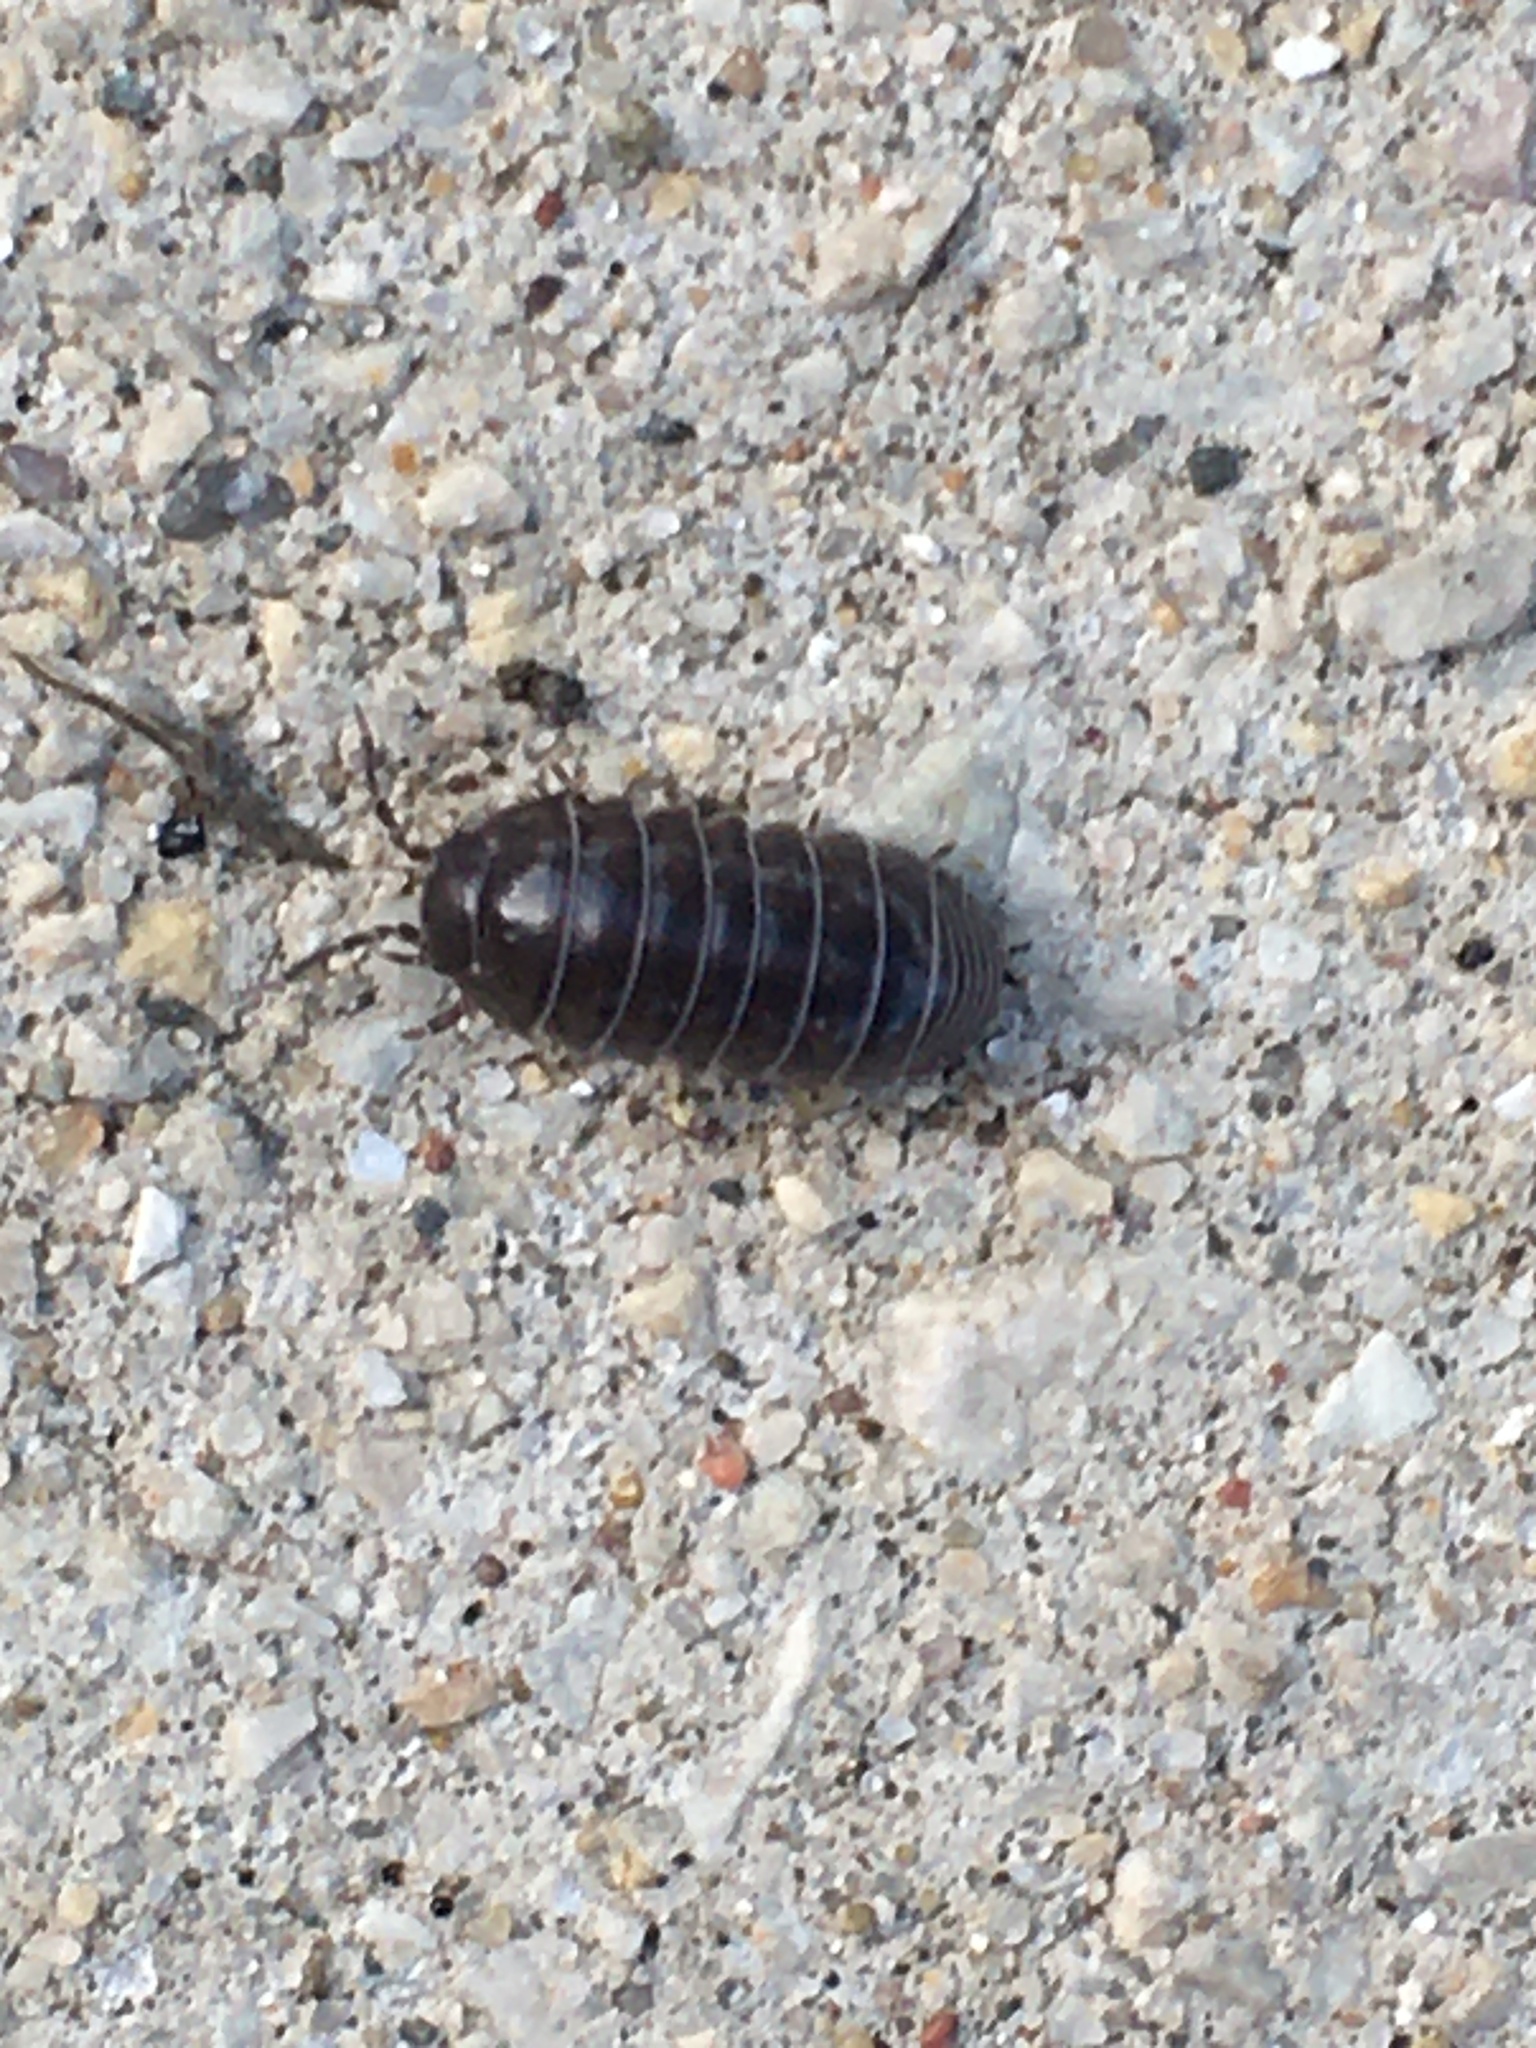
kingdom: Animalia
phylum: Arthropoda
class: Malacostraca
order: Isopoda
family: Armadillidiidae
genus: Armadillidium
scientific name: Armadillidium vulgare
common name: Common pill woodlouse
